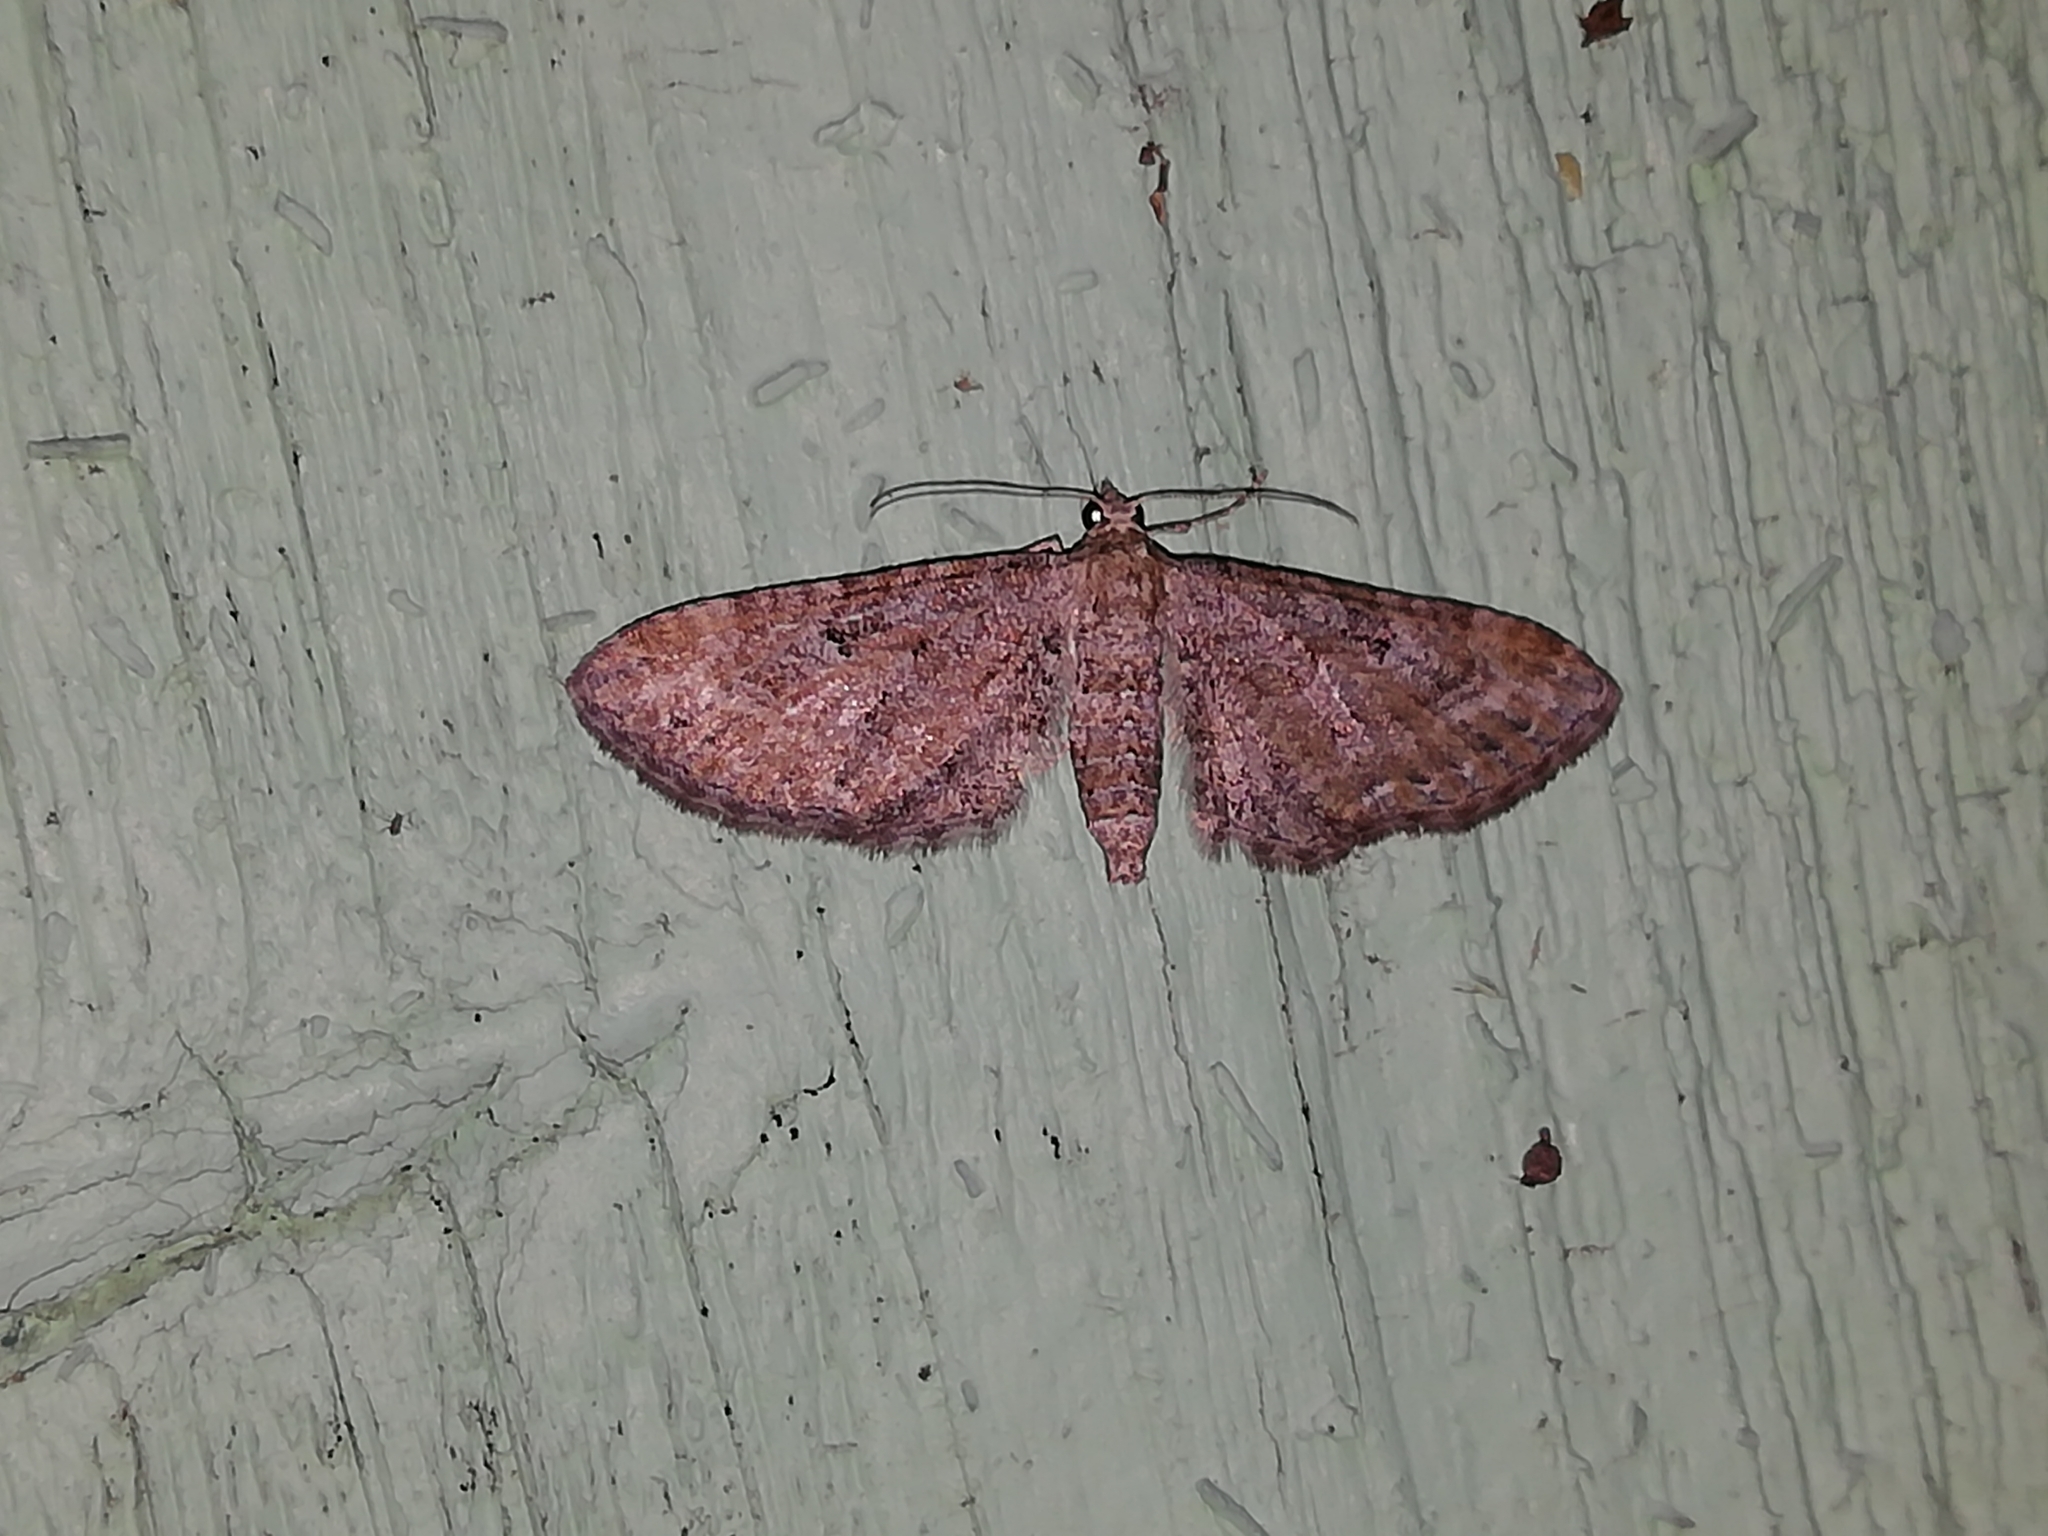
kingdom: Animalia
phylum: Arthropoda
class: Insecta
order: Lepidoptera
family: Geometridae
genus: Eupithecia
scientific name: Eupithecia vulgata
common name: Common pug
